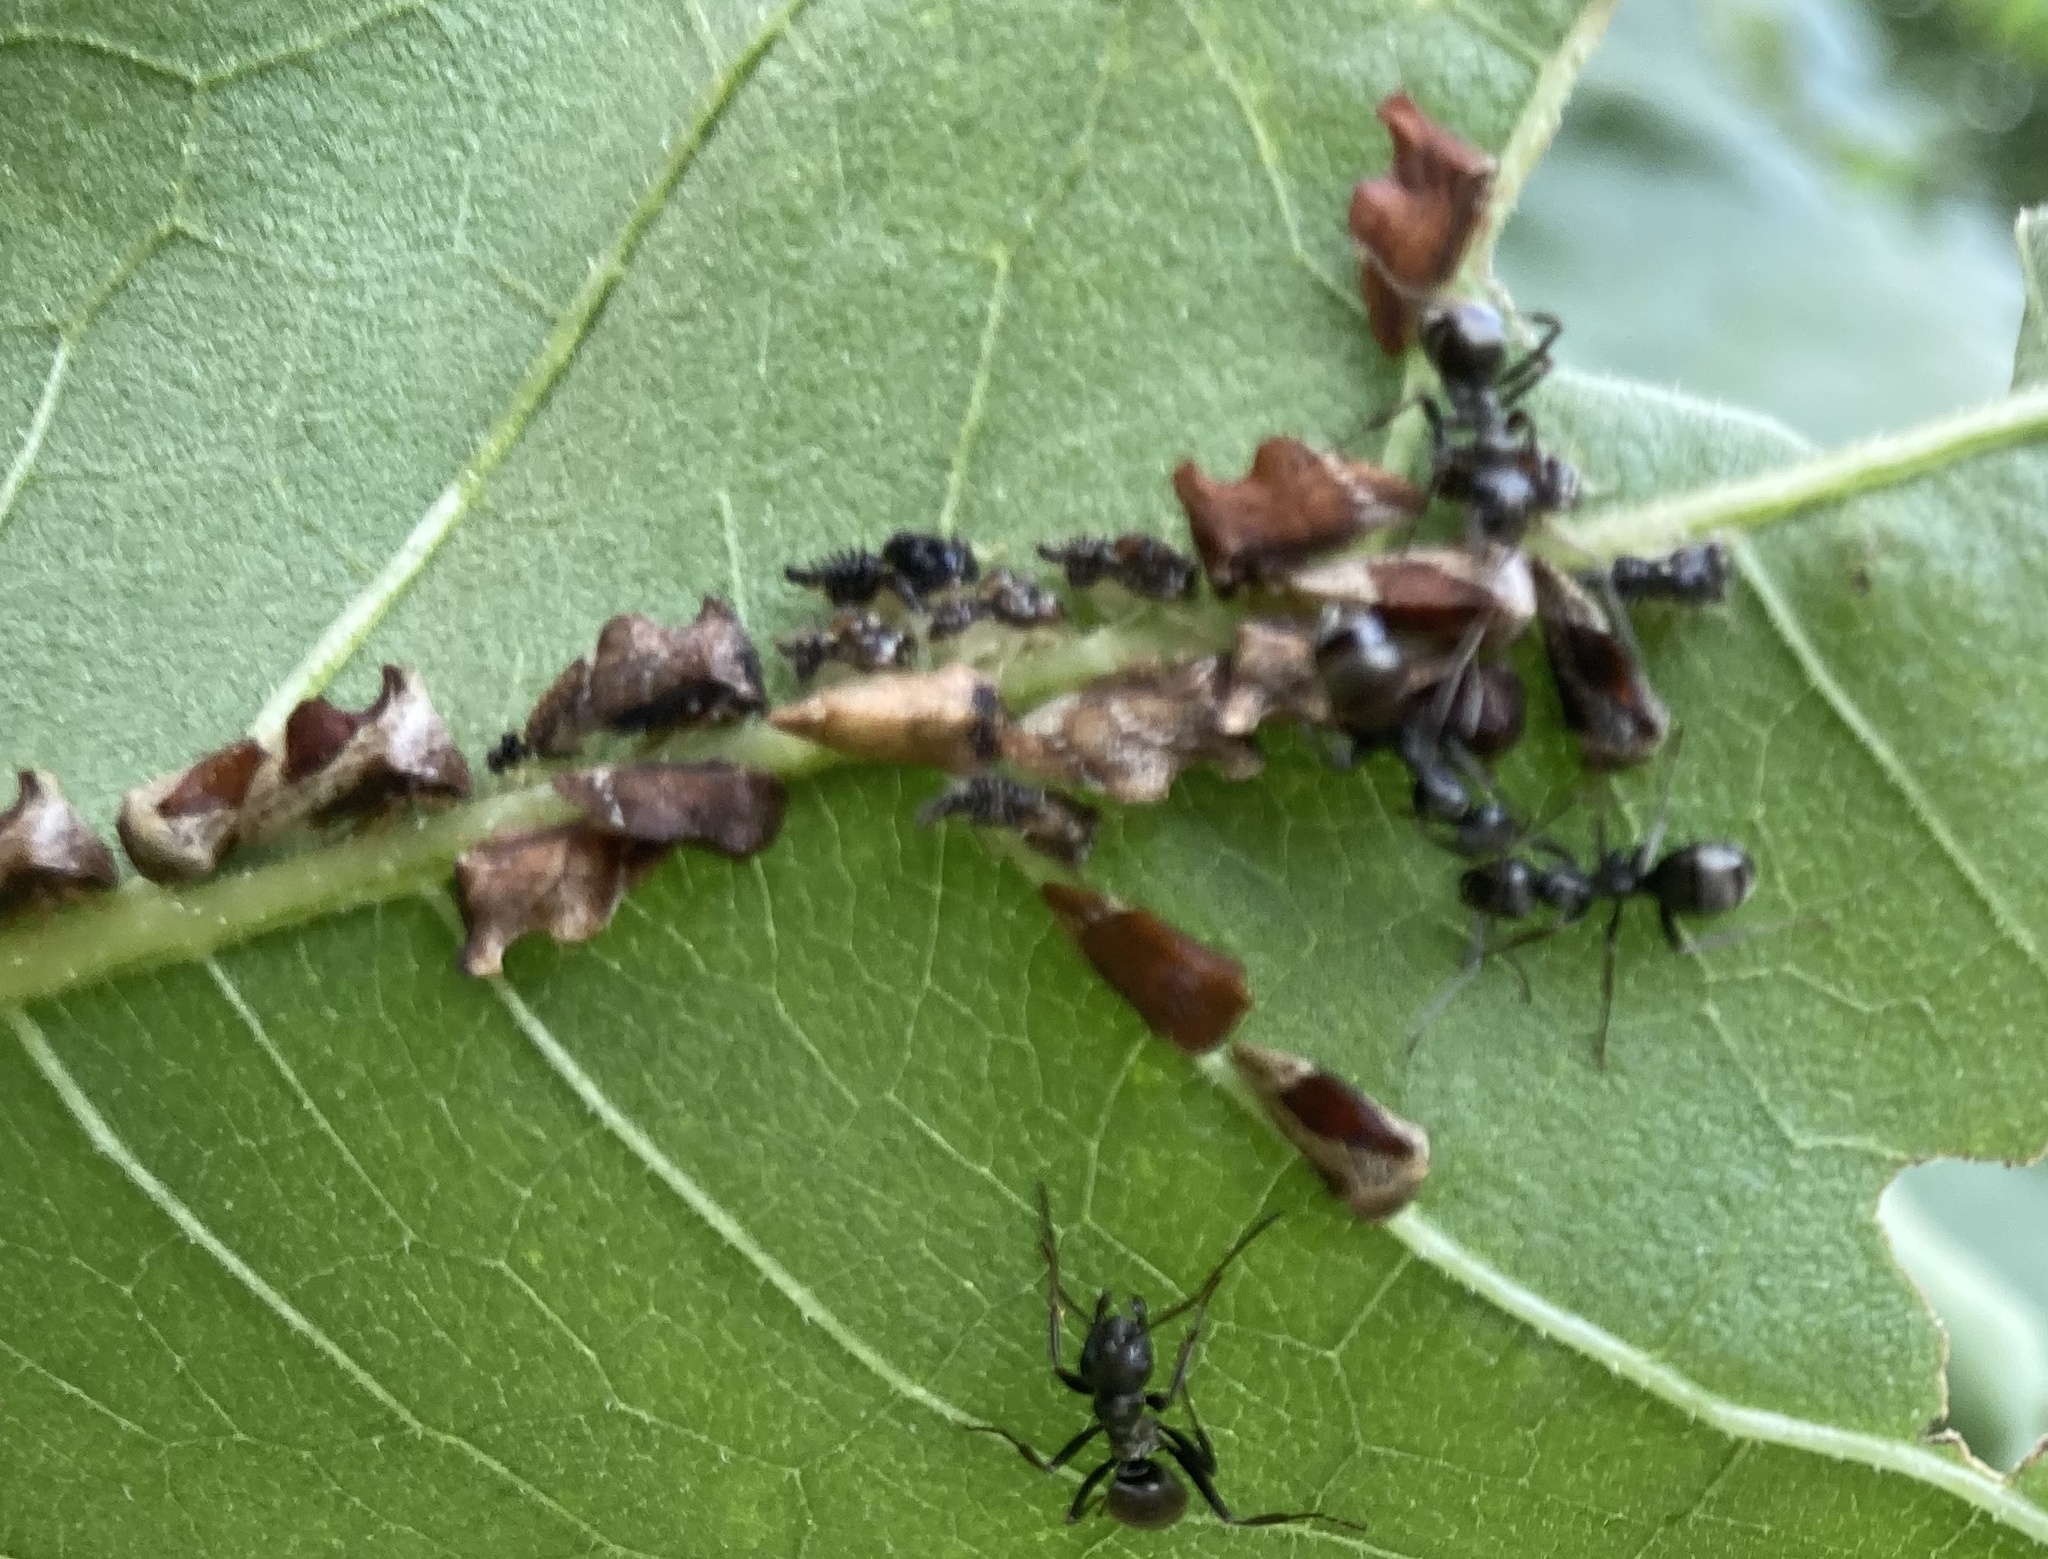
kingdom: Animalia
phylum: Arthropoda
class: Insecta
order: Hemiptera
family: Membracidae
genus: Entylia
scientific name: Entylia carinata
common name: Keeled treehopper
